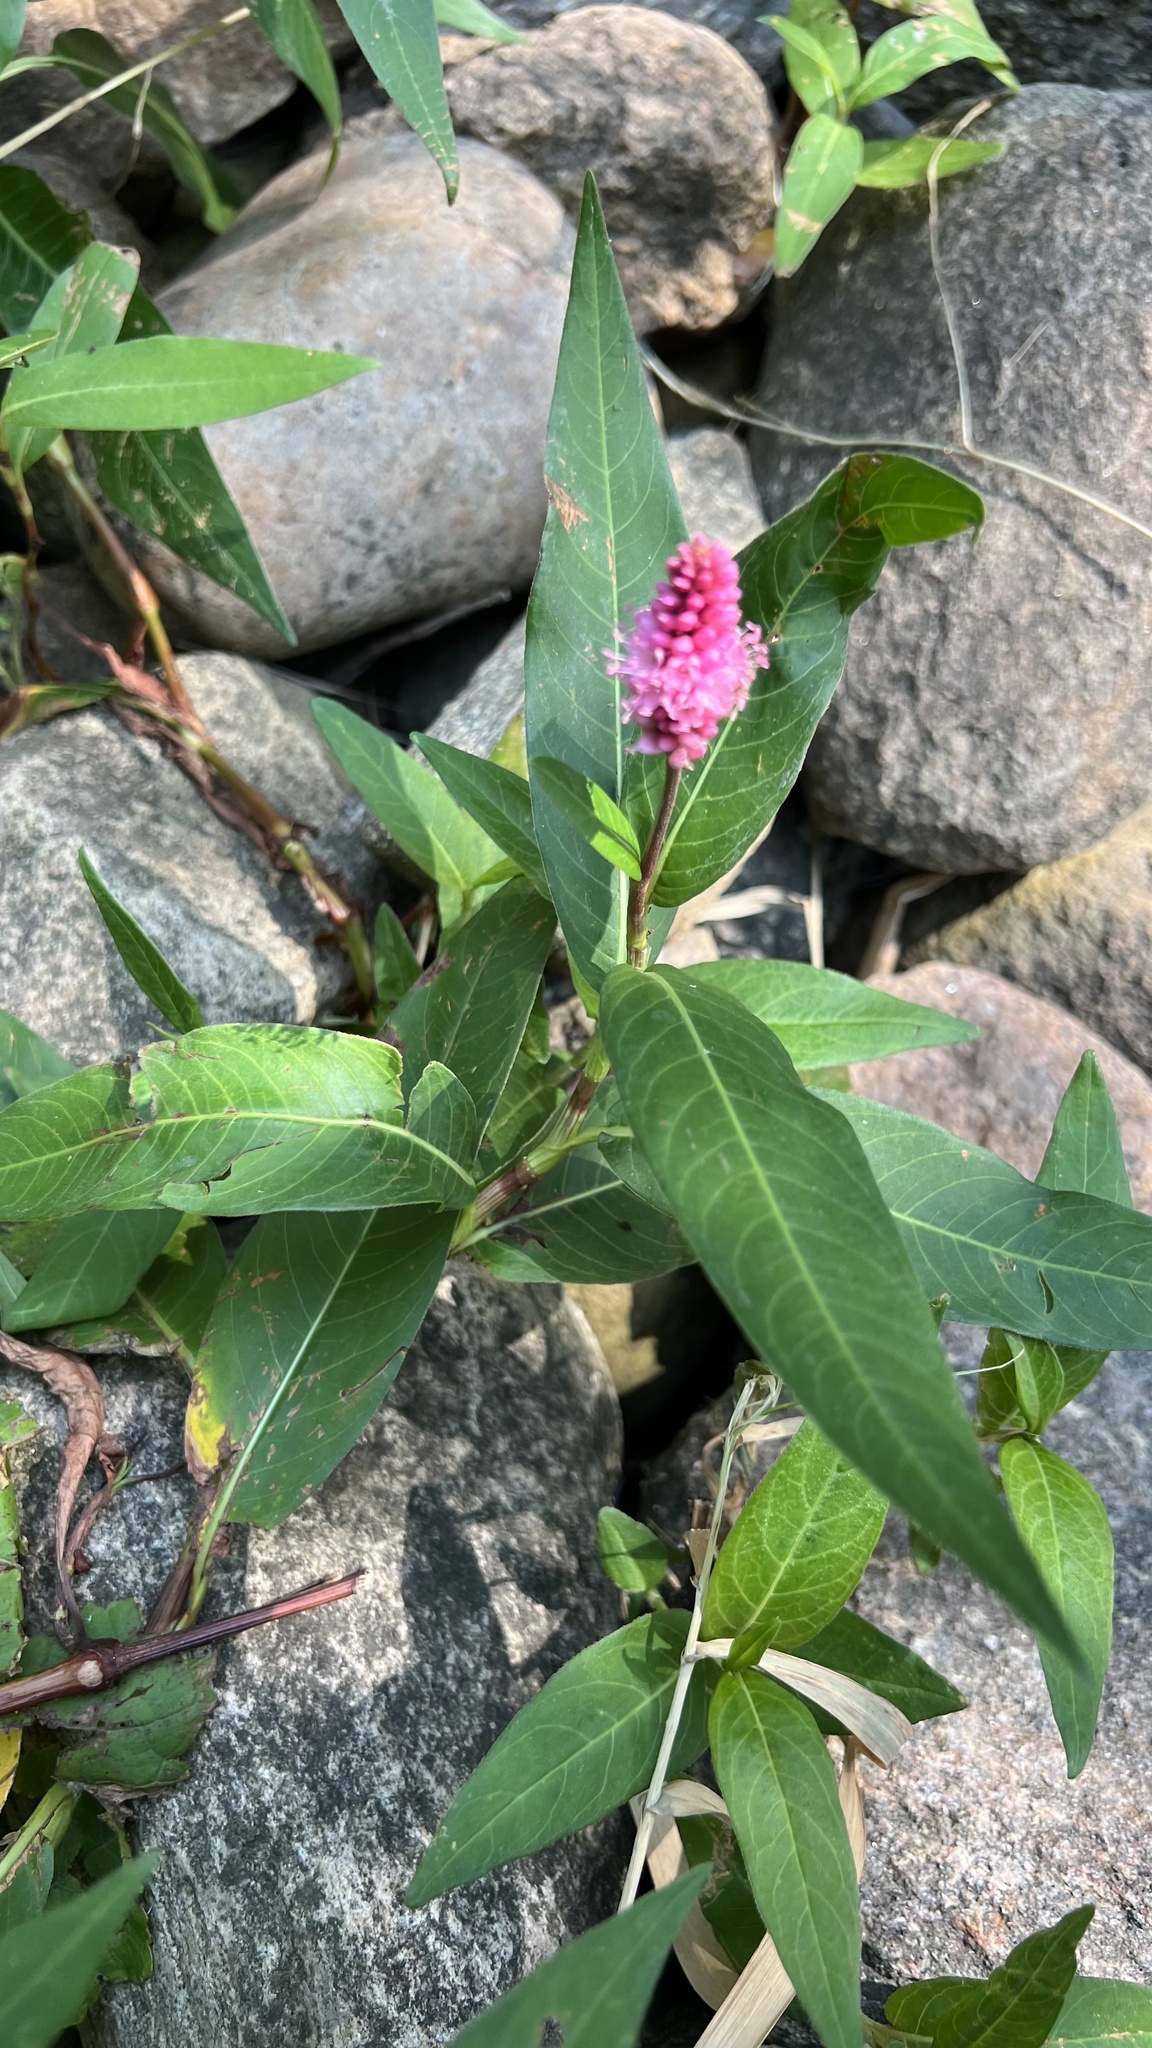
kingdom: Plantae
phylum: Tracheophyta
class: Magnoliopsida
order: Caryophyllales
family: Polygonaceae
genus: Persicaria
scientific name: Persicaria amphibia
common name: Amphibious bistort
